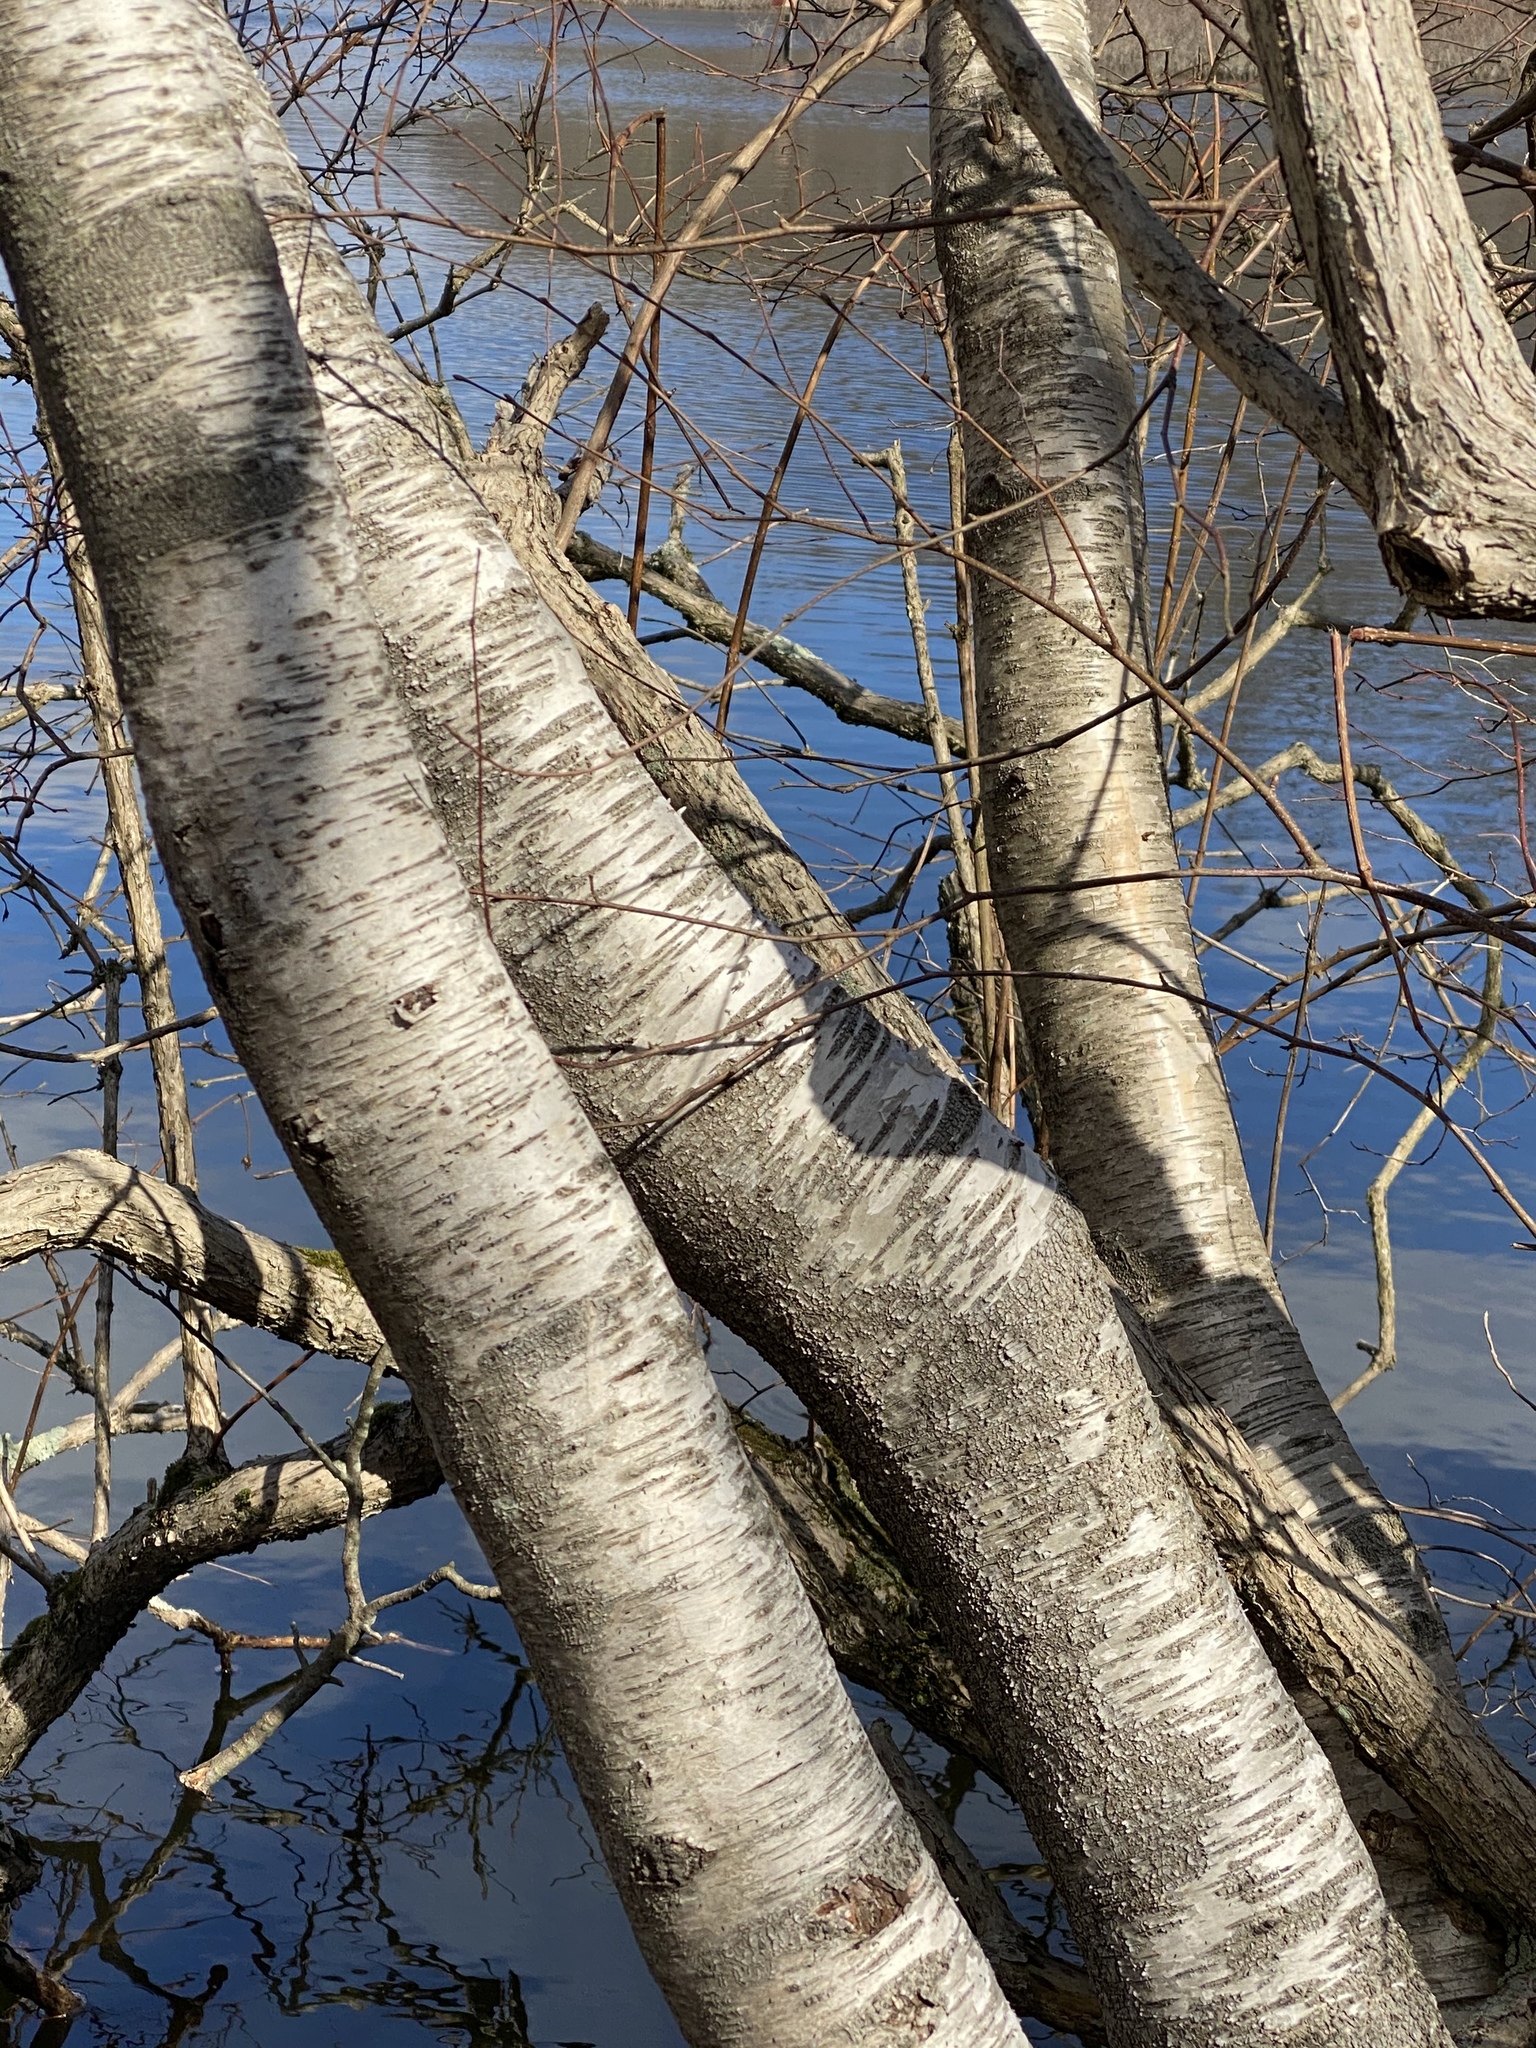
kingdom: Plantae
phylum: Tracheophyta
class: Magnoliopsida
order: Fagales
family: Betulaceae
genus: Betula
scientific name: Betula populifolia
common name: Fire birch
